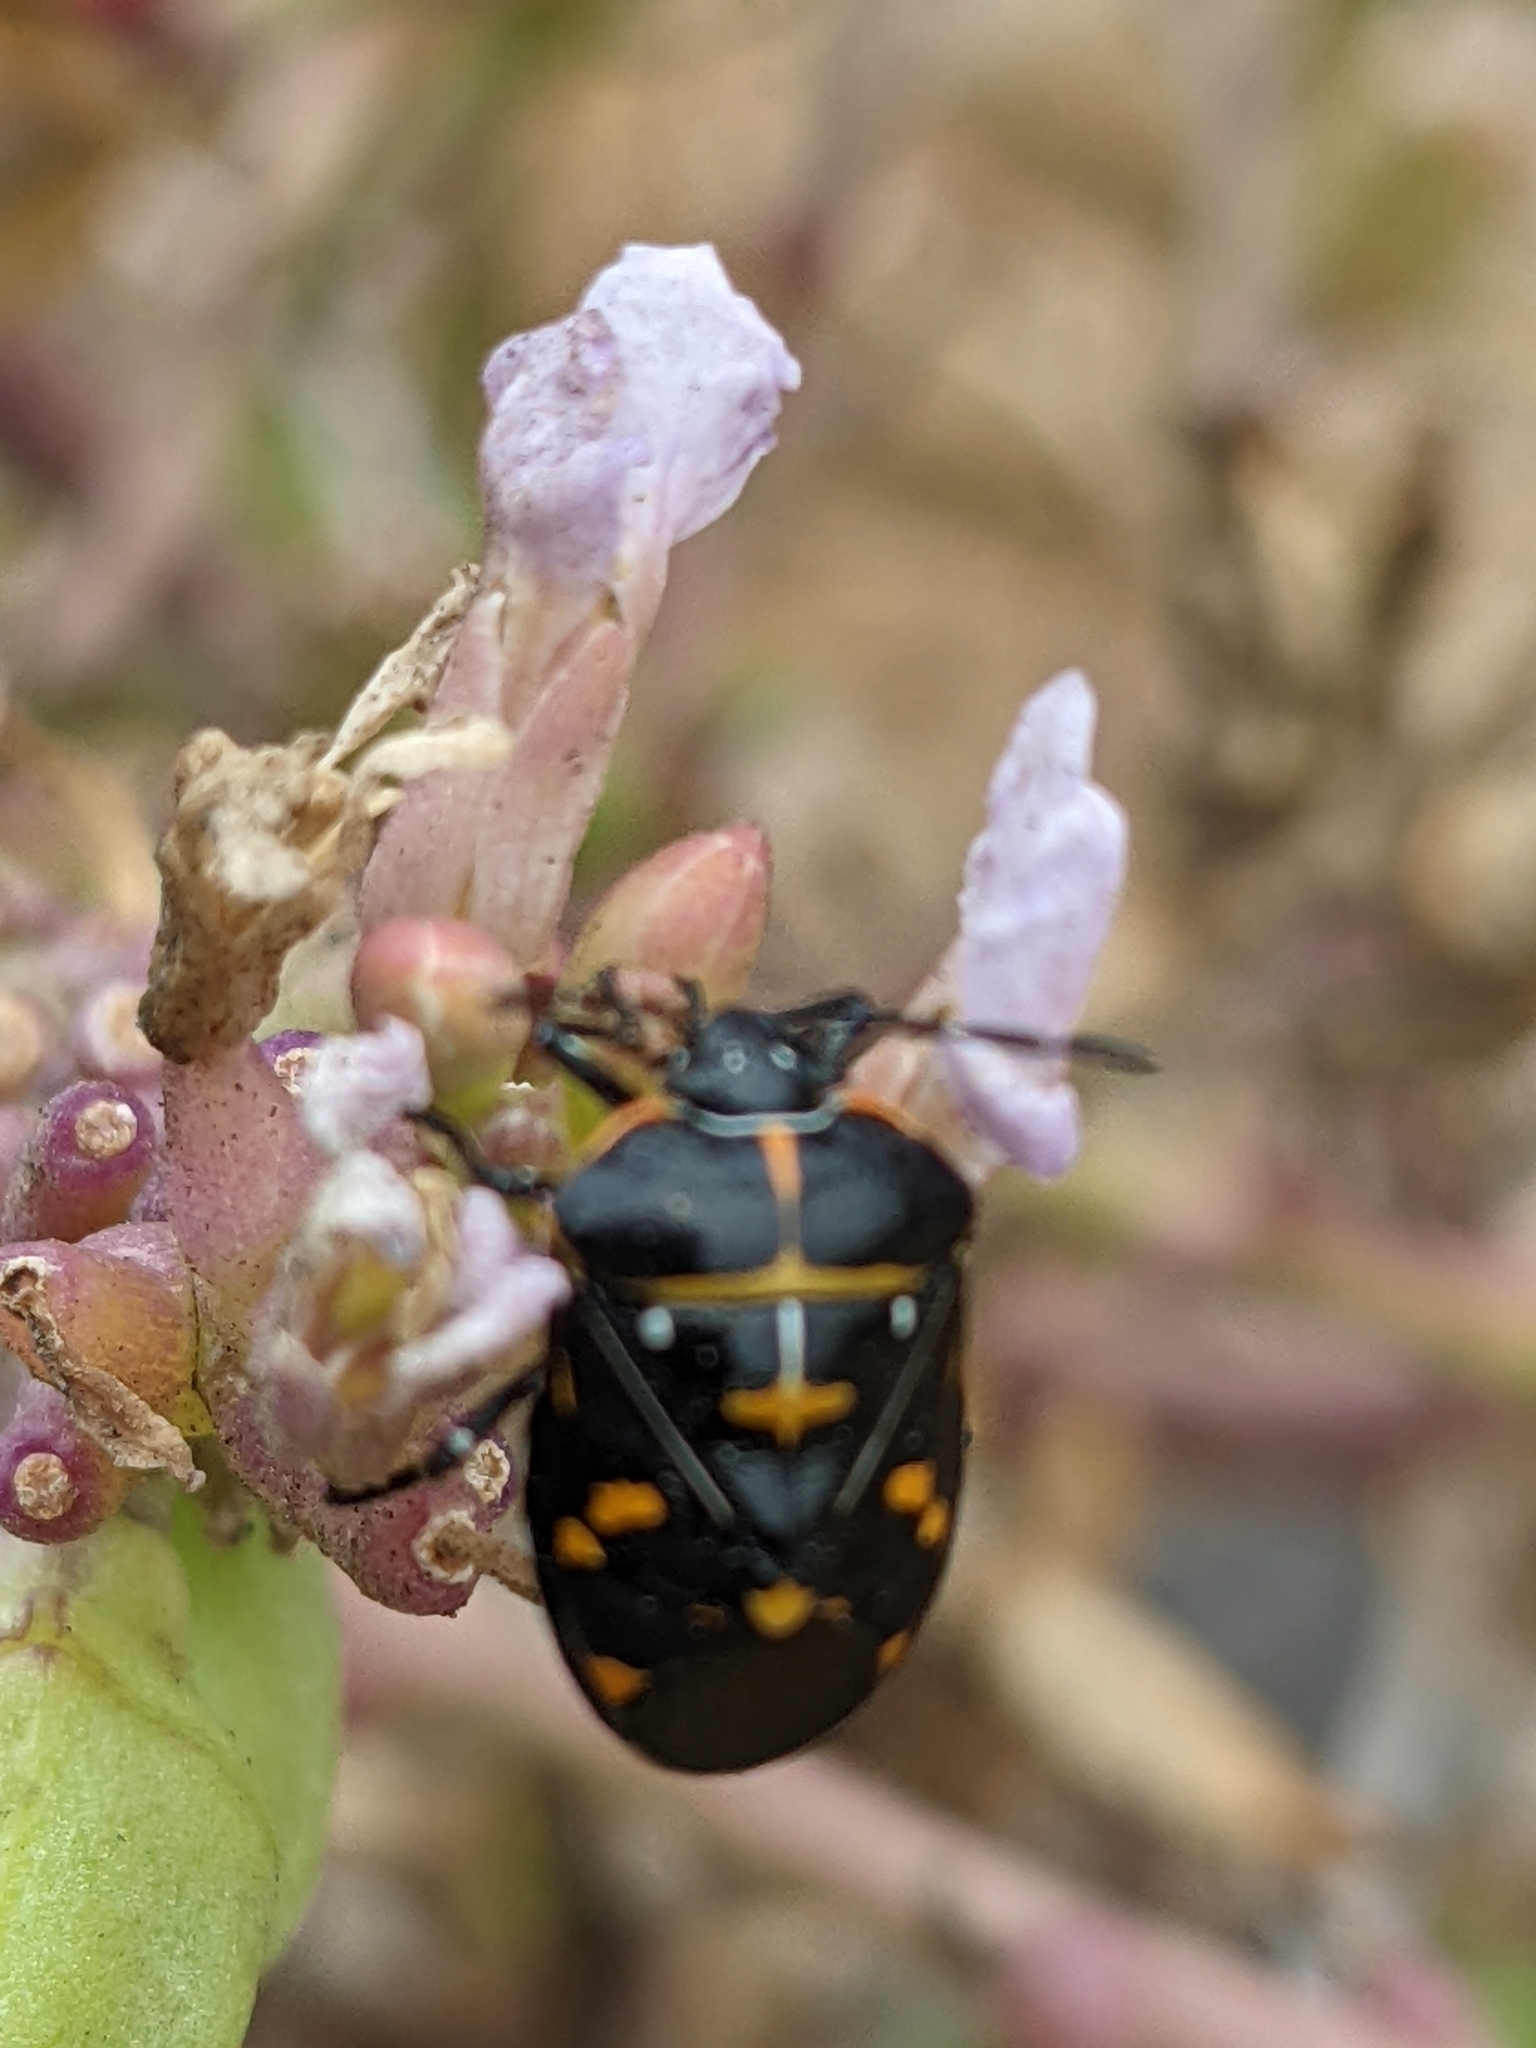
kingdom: Animalia
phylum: Arthropoda
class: Insecta
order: Hemiptera
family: Pentatomidae
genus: Murgantia
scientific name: Murgantia histrionica
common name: Harlequin bug
